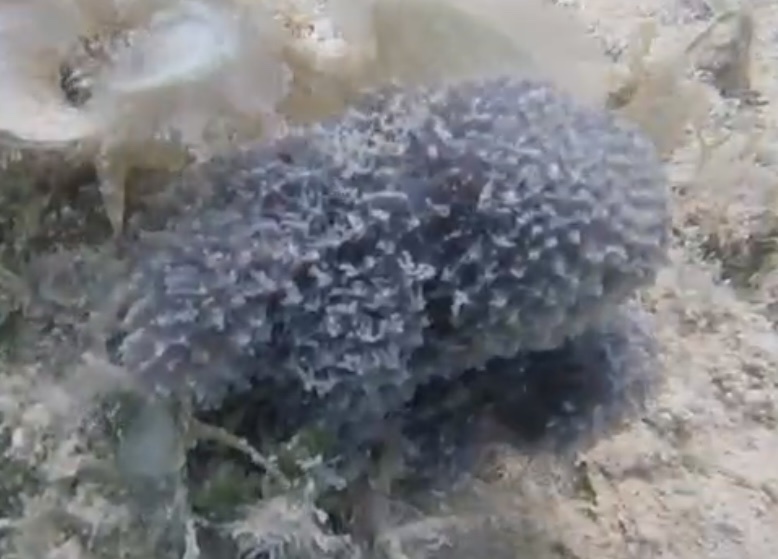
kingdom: Animalia
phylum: Porifera
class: Demospongiae
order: Dictyoceratida
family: Dysideidae
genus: Dysidea
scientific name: Dysidea etheria
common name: Heavenly sponge
